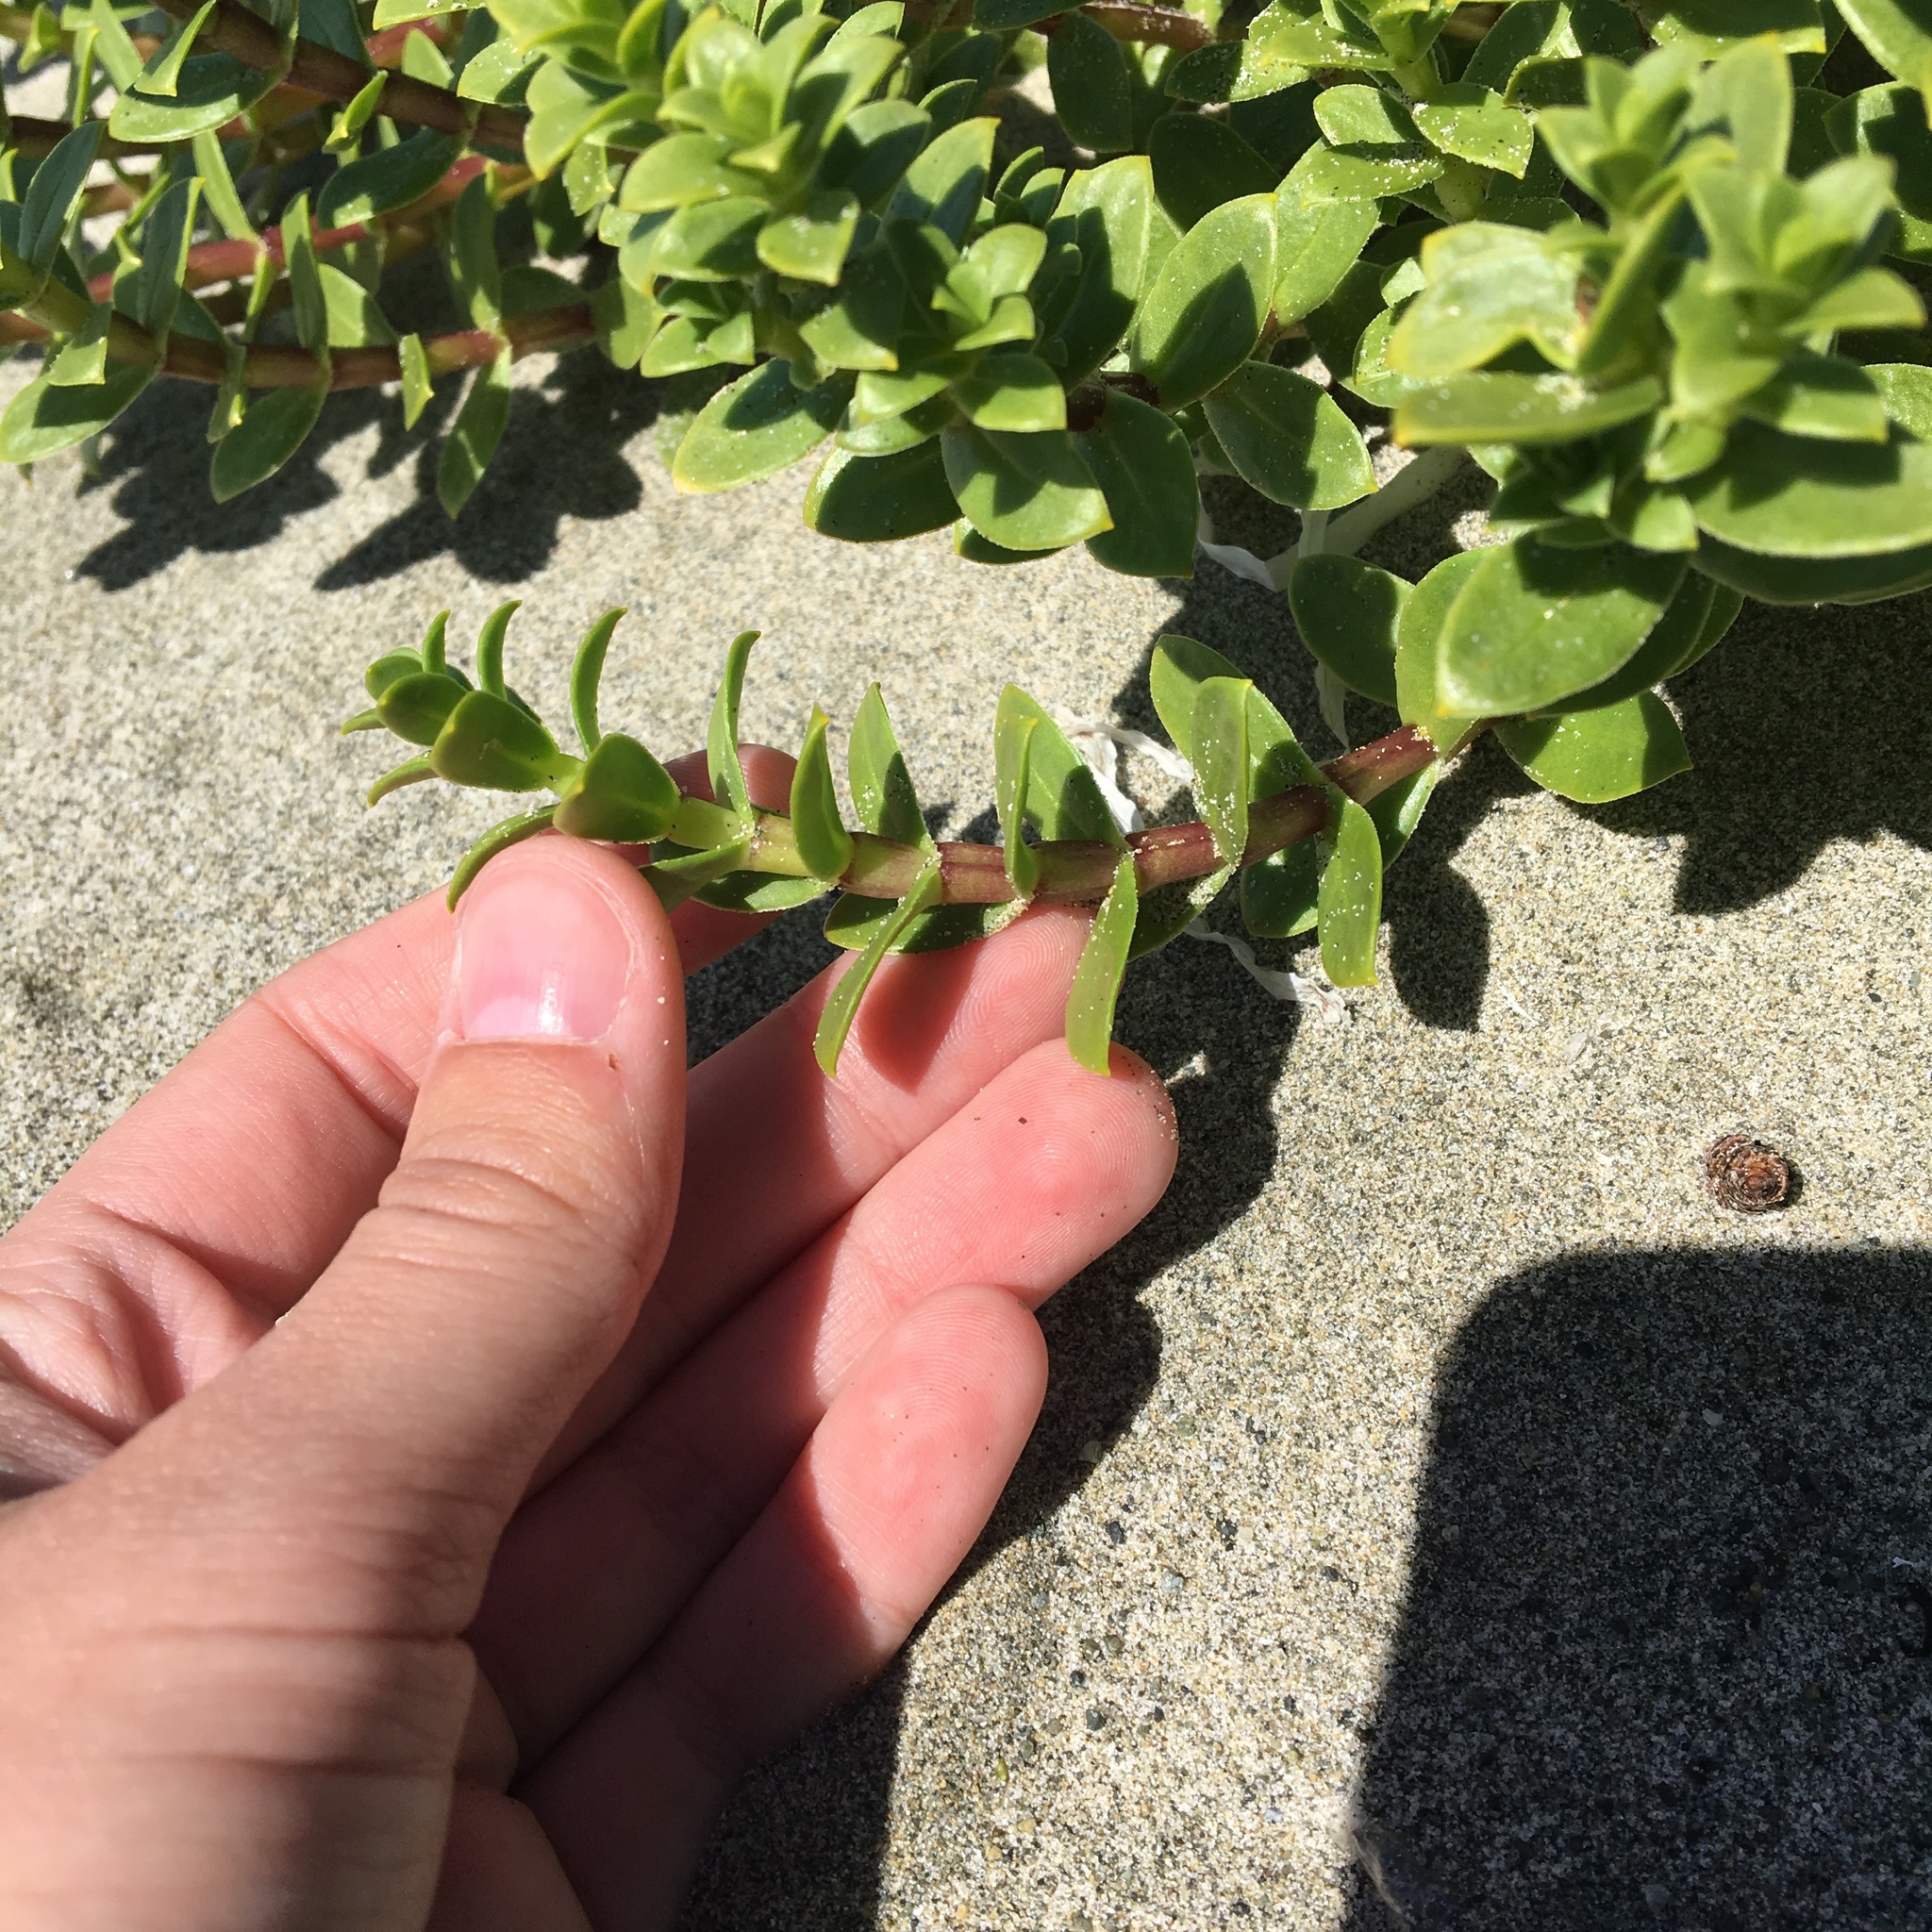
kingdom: Plantae
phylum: Tracheophyta
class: Magnoliopsida
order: Caryophyllales
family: Caryophyllaceae
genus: Honckenya
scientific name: Honckenya peploides
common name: Sea sandwort
